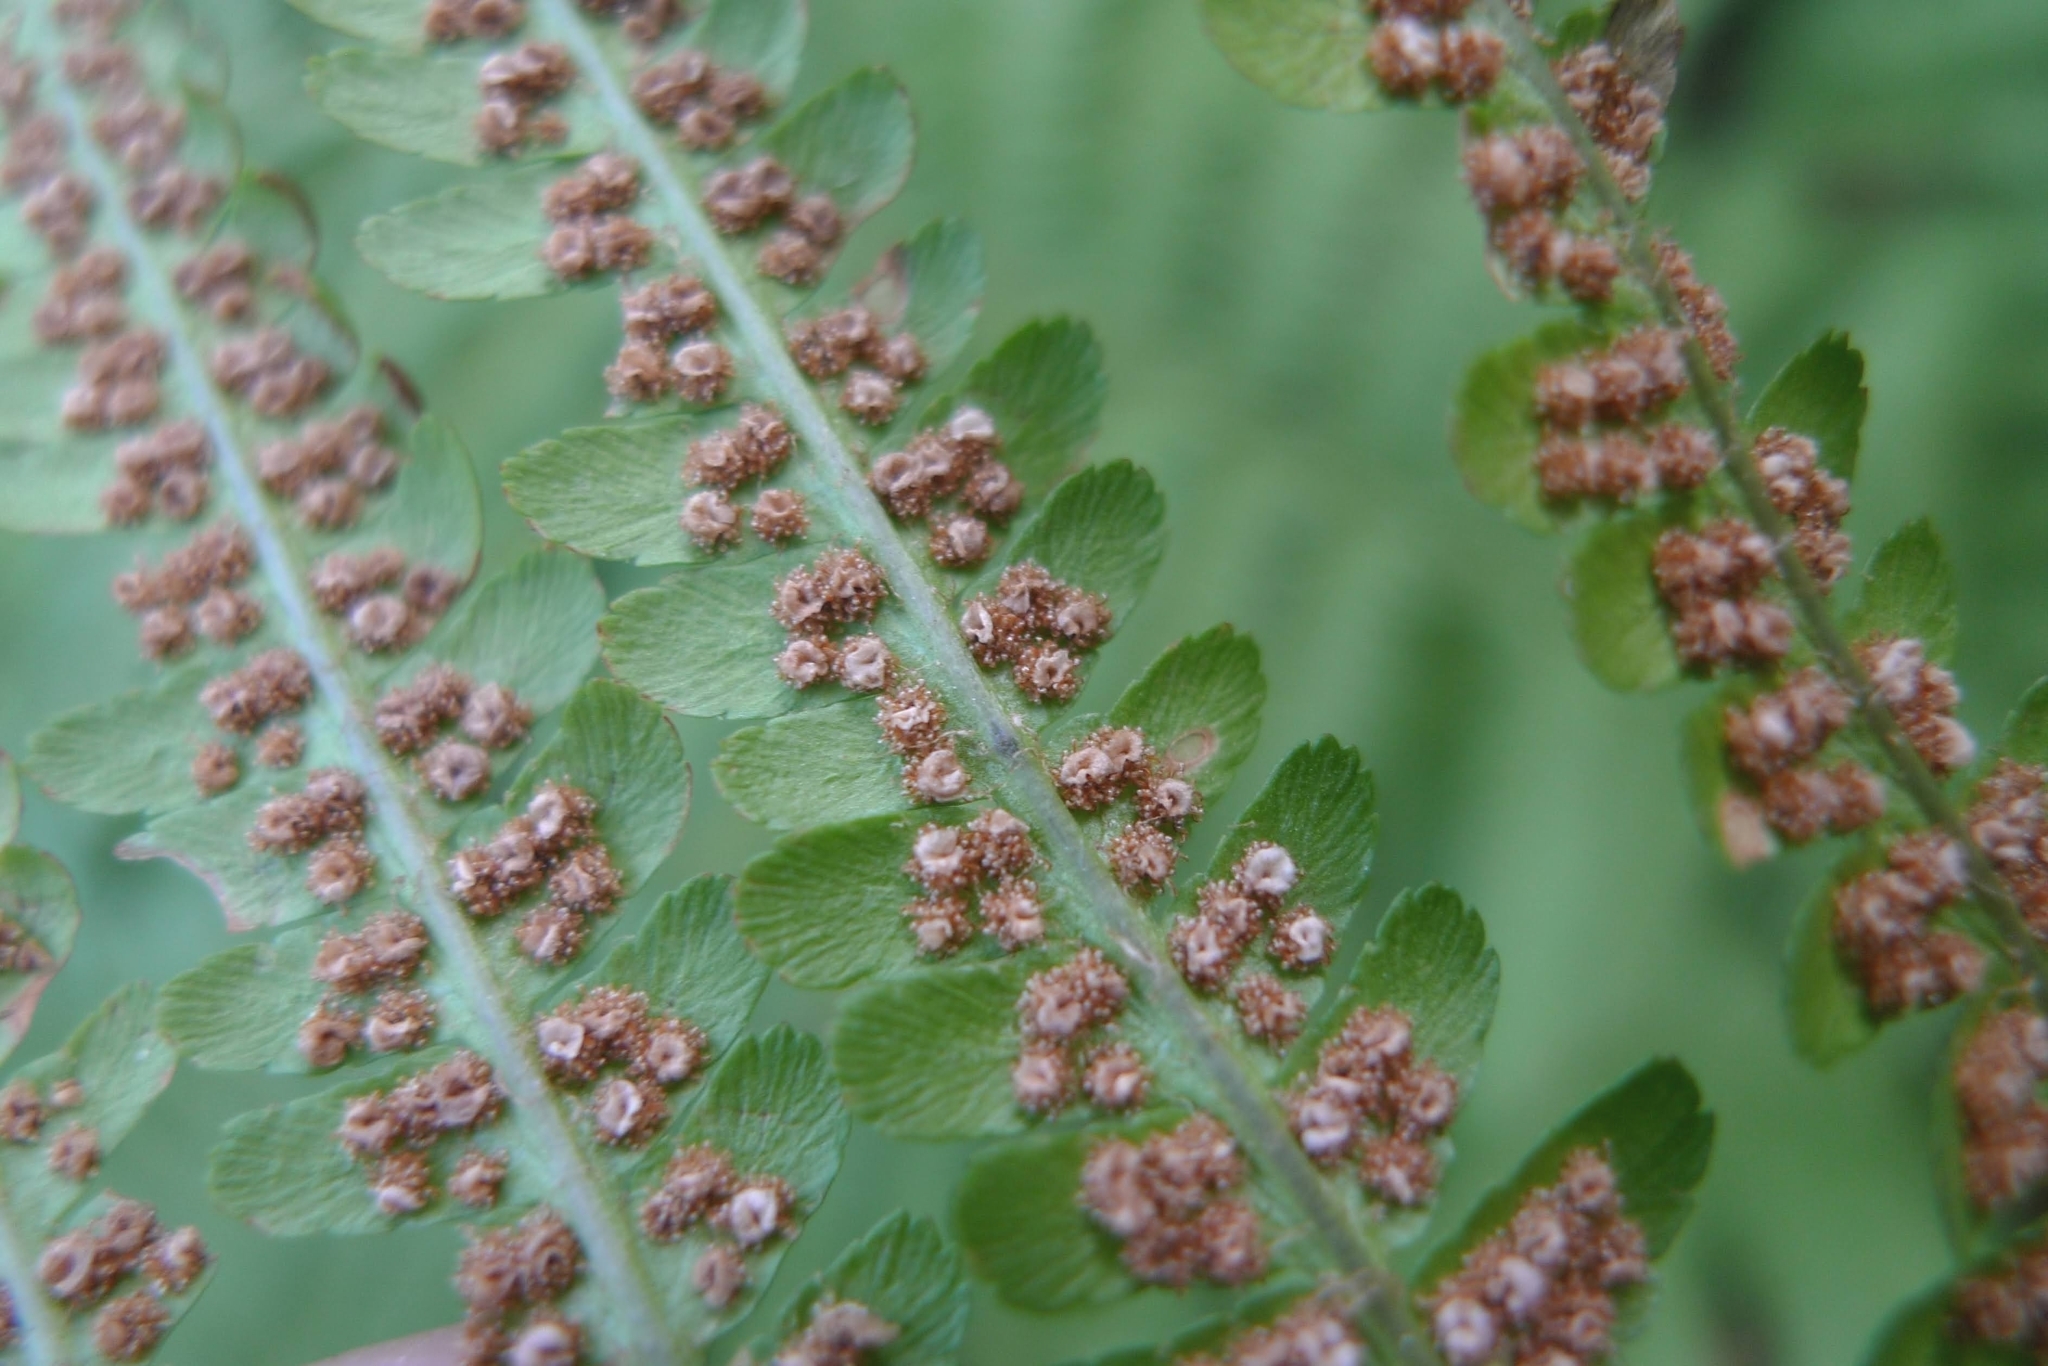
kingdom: Plantae
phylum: Tracheophyta
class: Polypodiopsida
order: Polypodiales
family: Dryopteridaceae
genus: Dryopteris
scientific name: Dryopteris filix-mas
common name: Male fern
